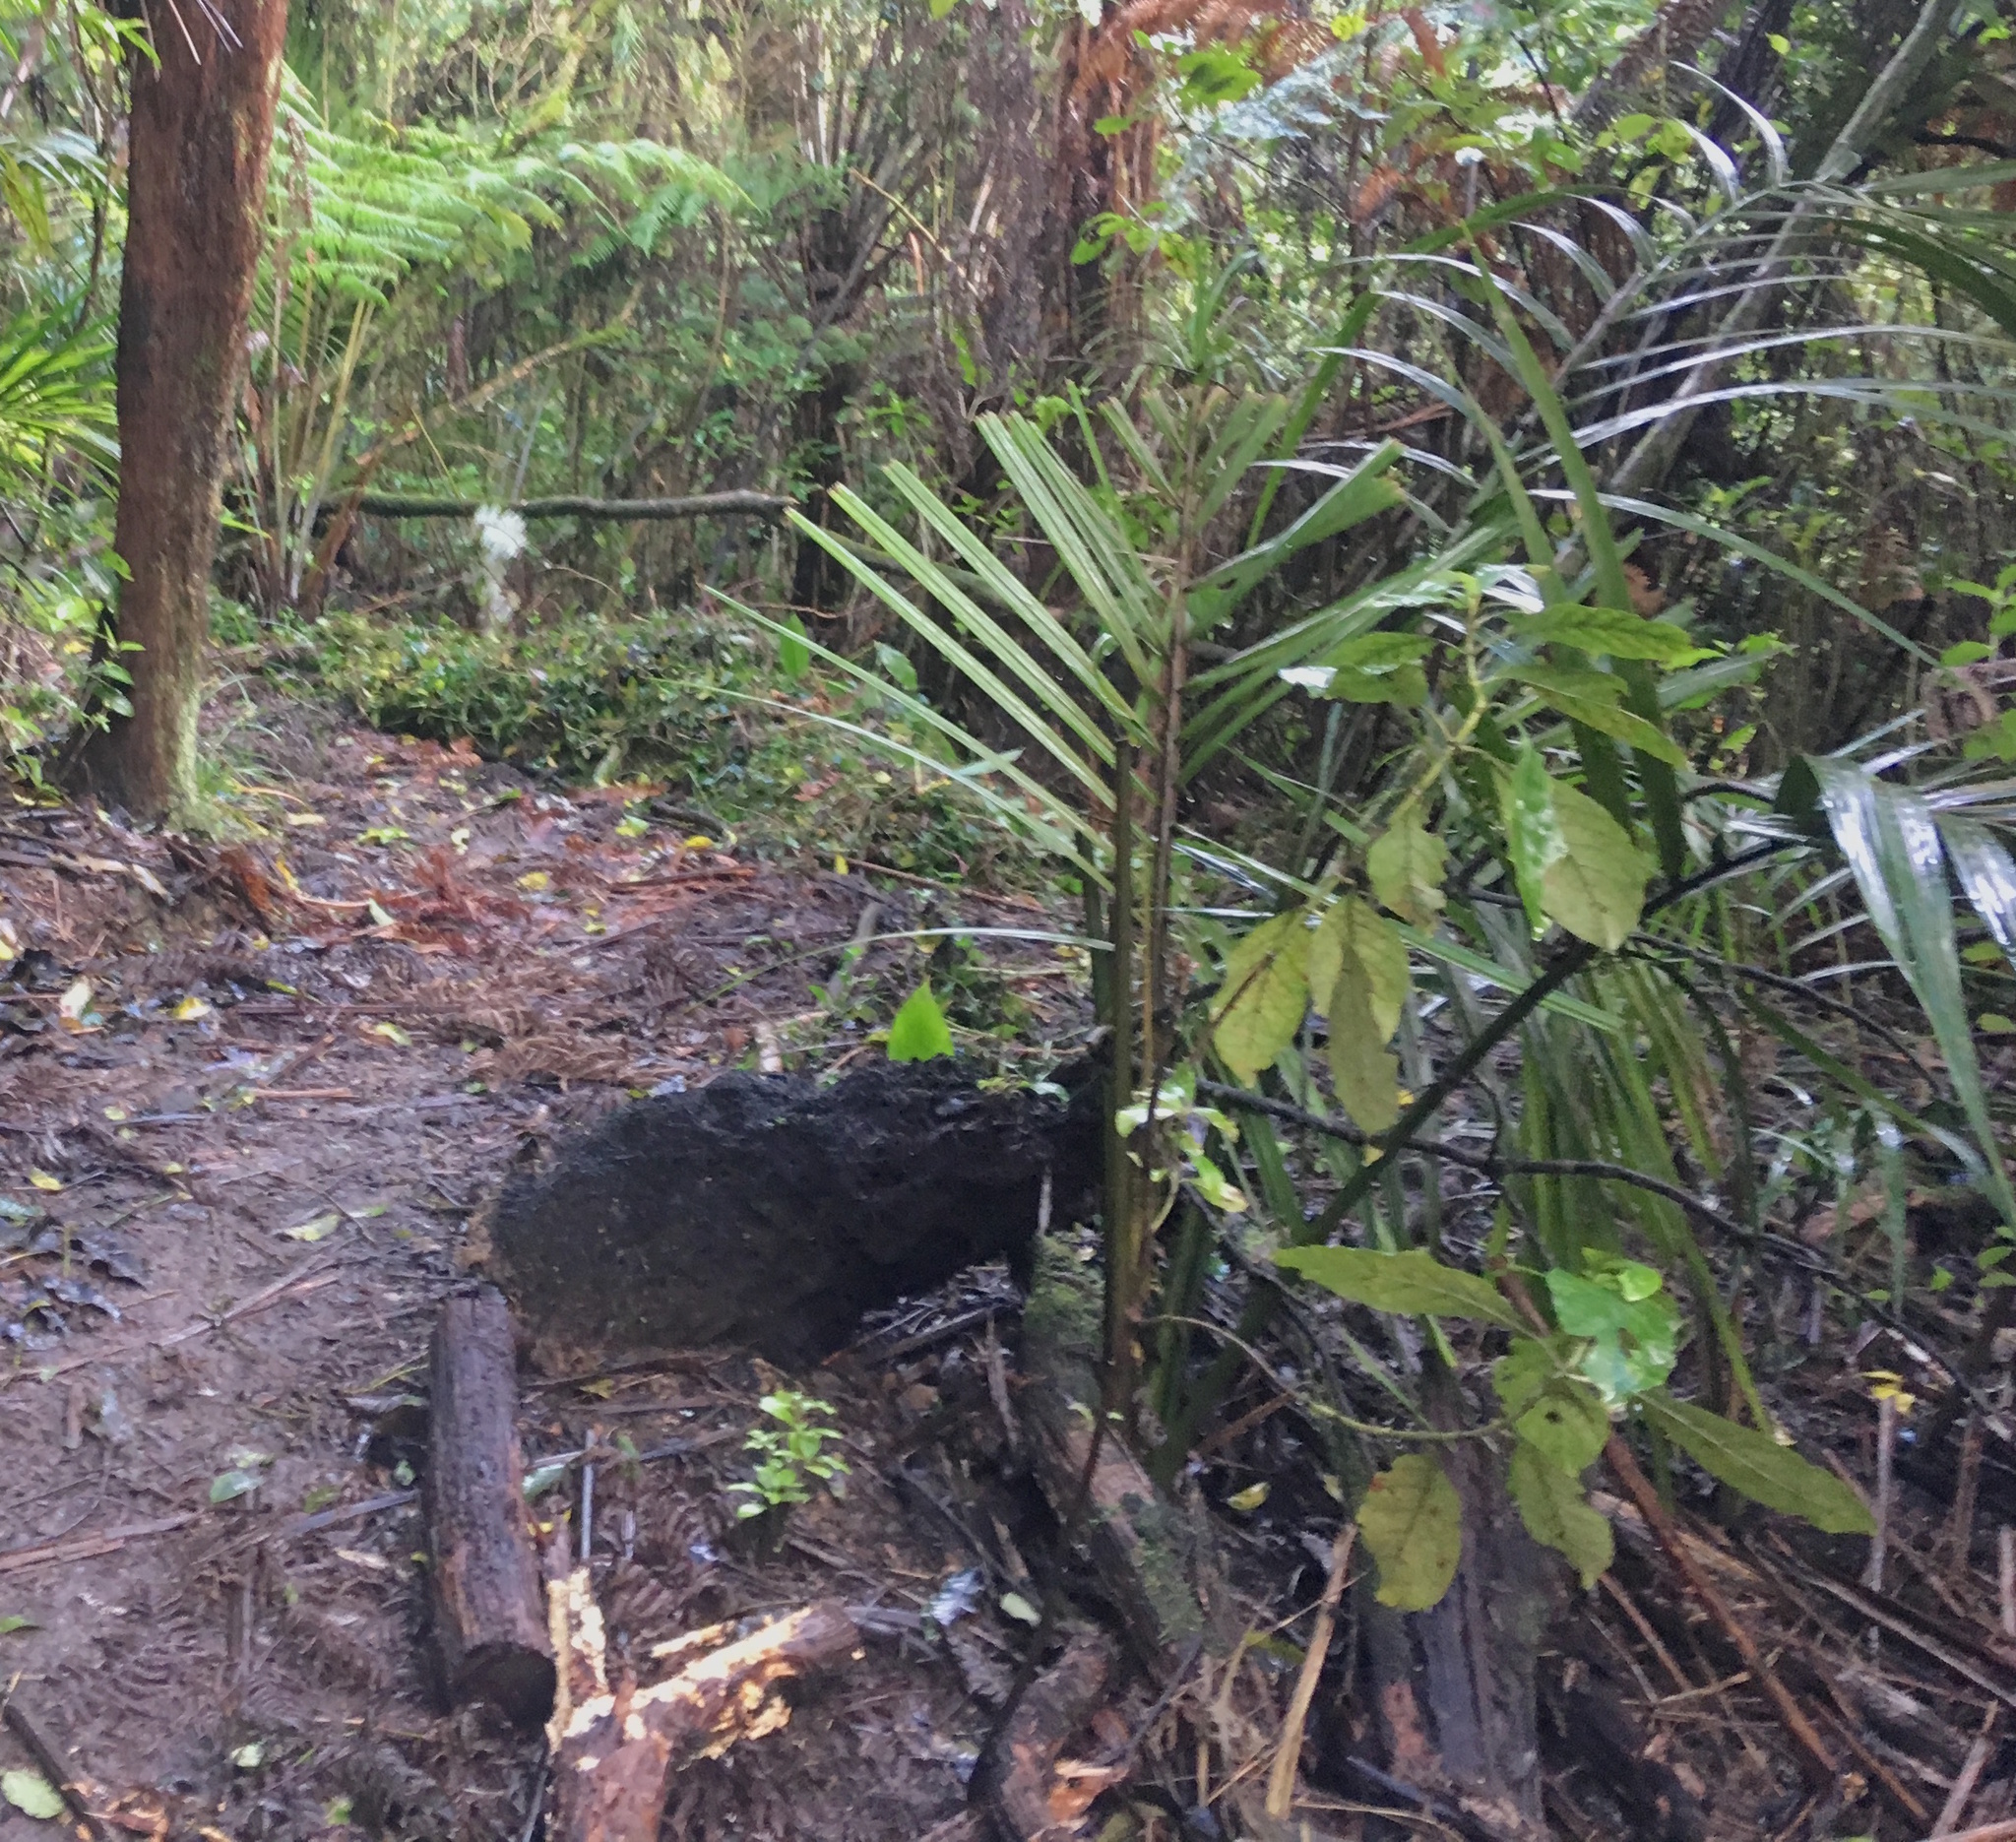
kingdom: Plantae
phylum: Tracheophyta
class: Magnoliopsida
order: Gentianales
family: Rubiaceae
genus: Coprosma
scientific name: Coprosma autumnalis
